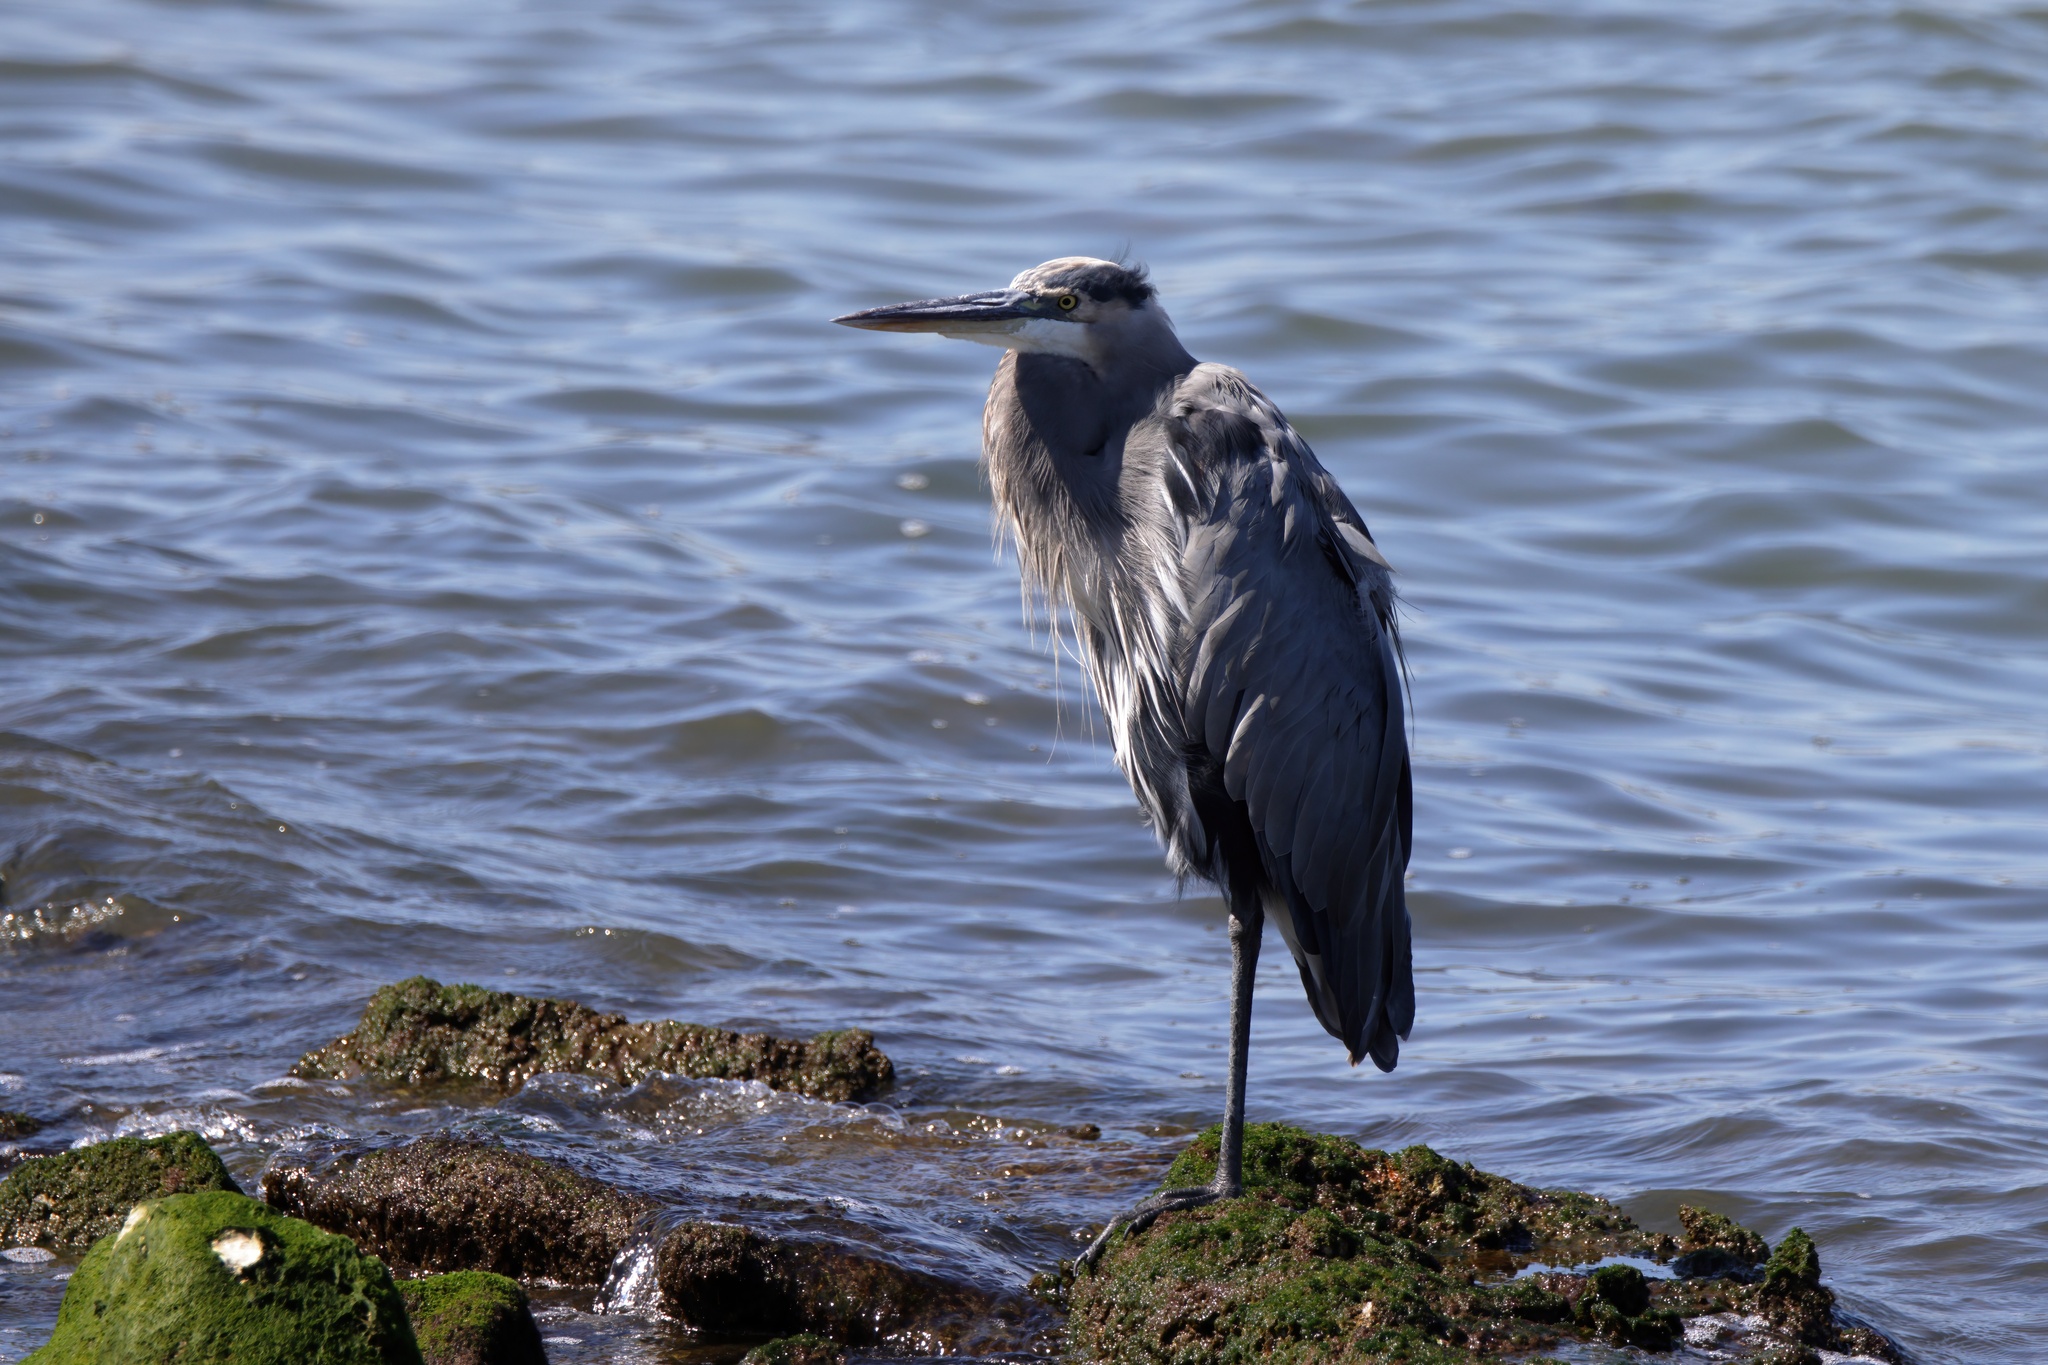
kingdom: Animalia
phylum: Chordata
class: Aves
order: Pelecaniformes
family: Ardeidae
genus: Ardea
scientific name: Ardea herodias
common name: Great blue heron
